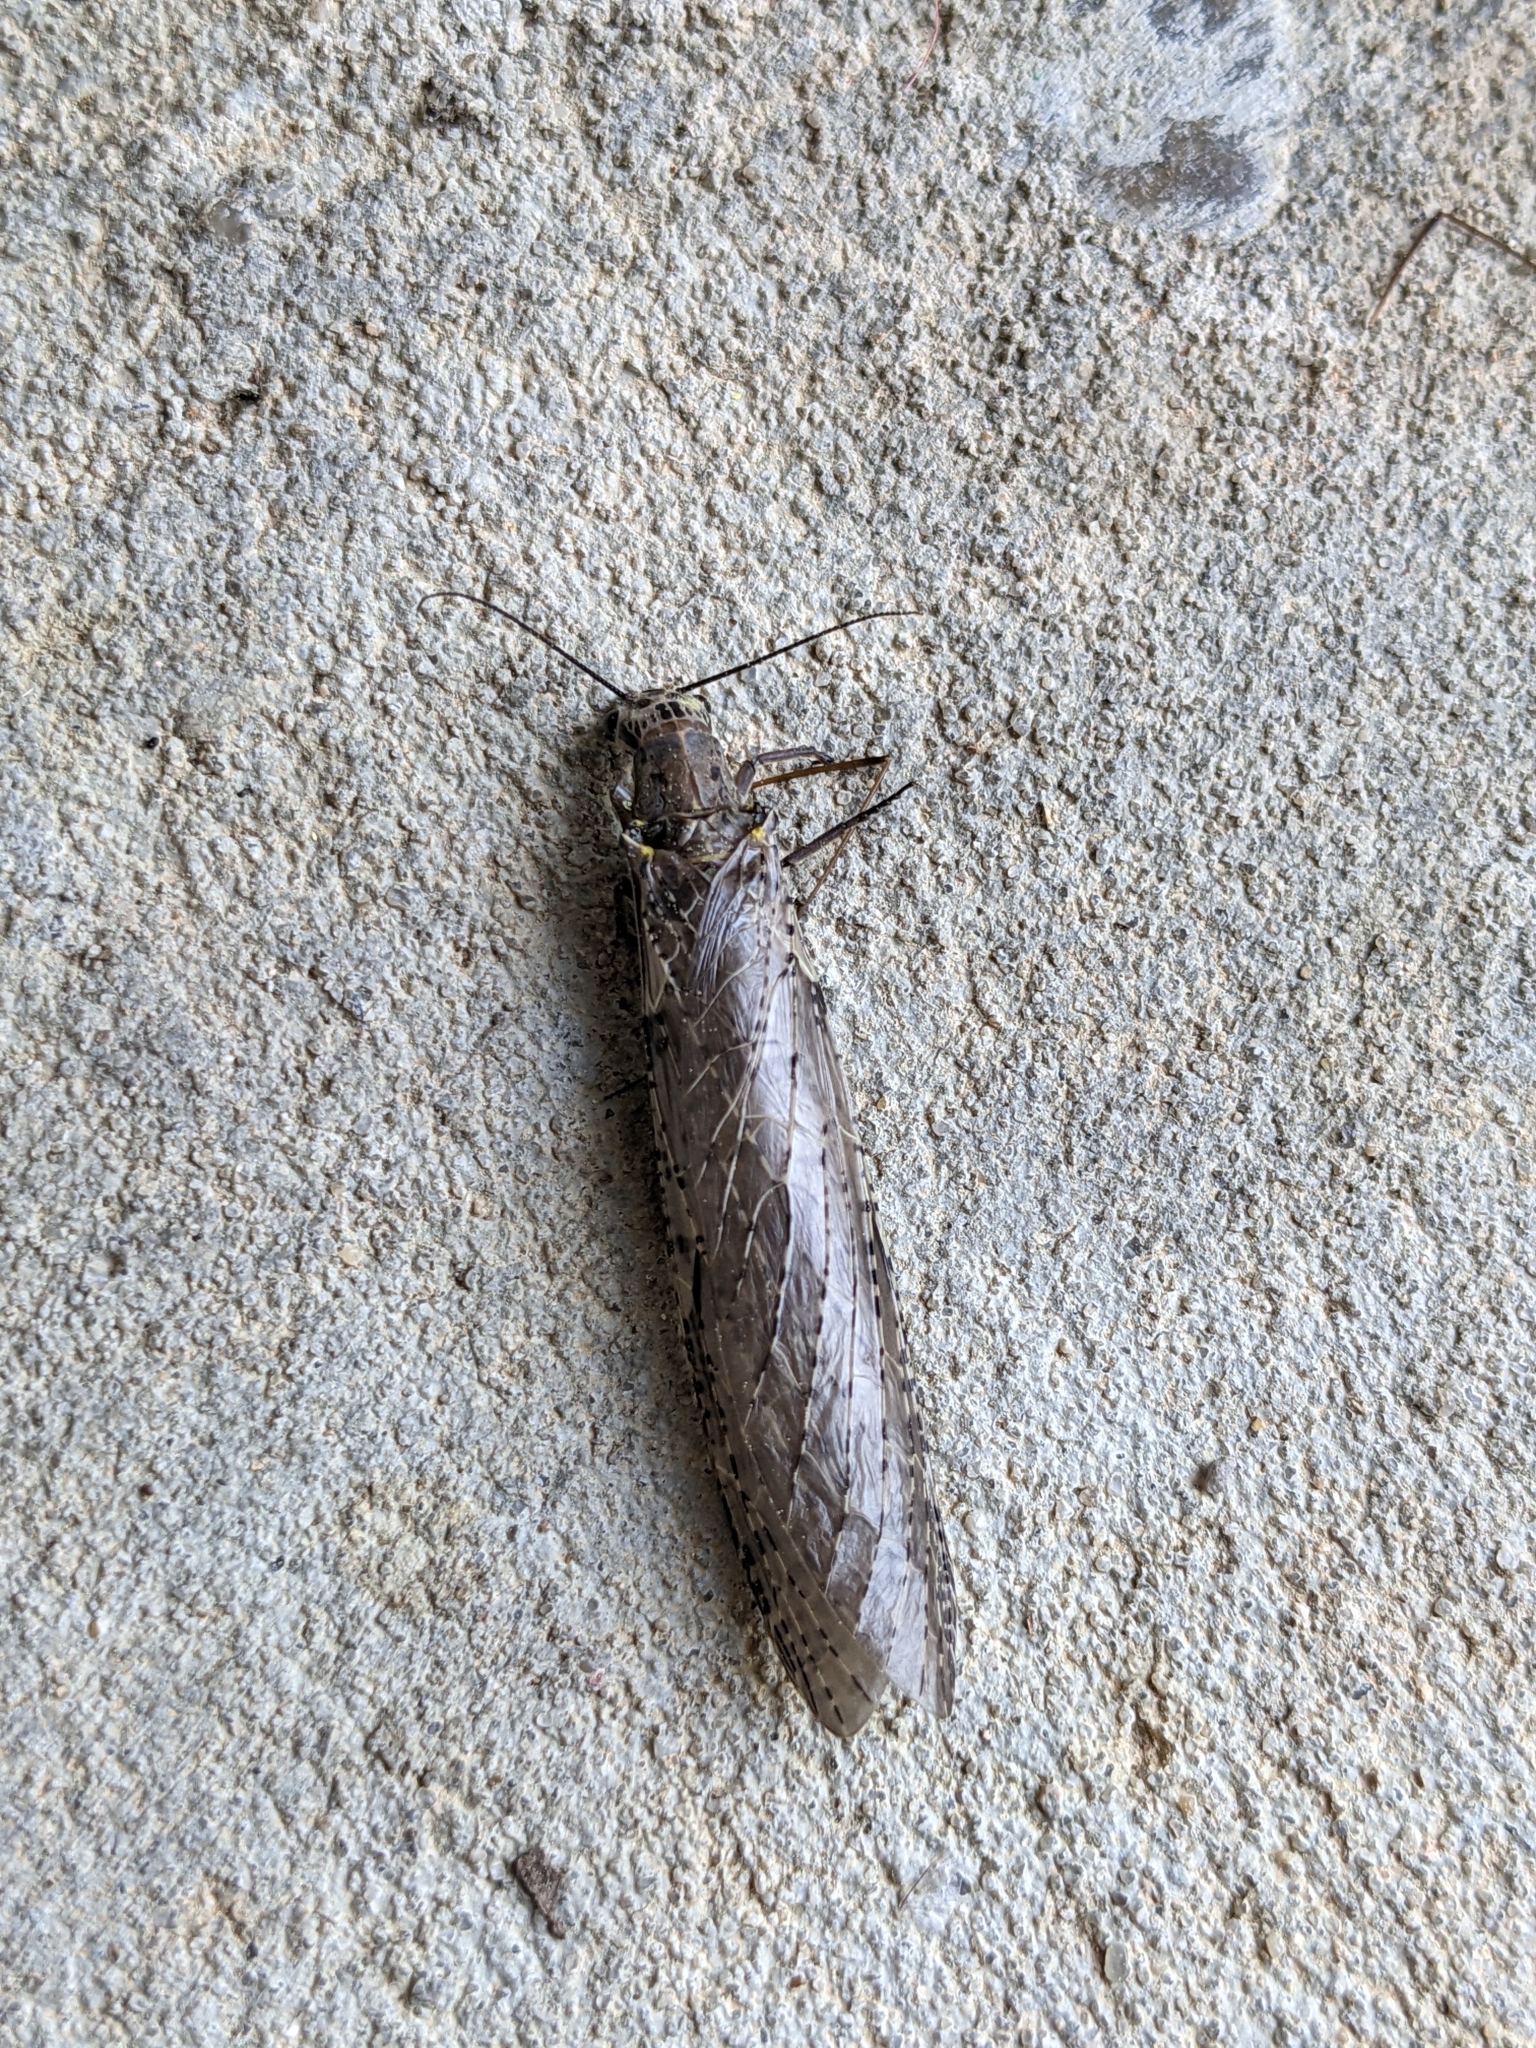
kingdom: Animalia
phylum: Arthropoda
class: Insecta
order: Megaloptera
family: Corydalidae
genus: Chauliodes
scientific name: Chauliodes rastricornis
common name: Spring fishfly
